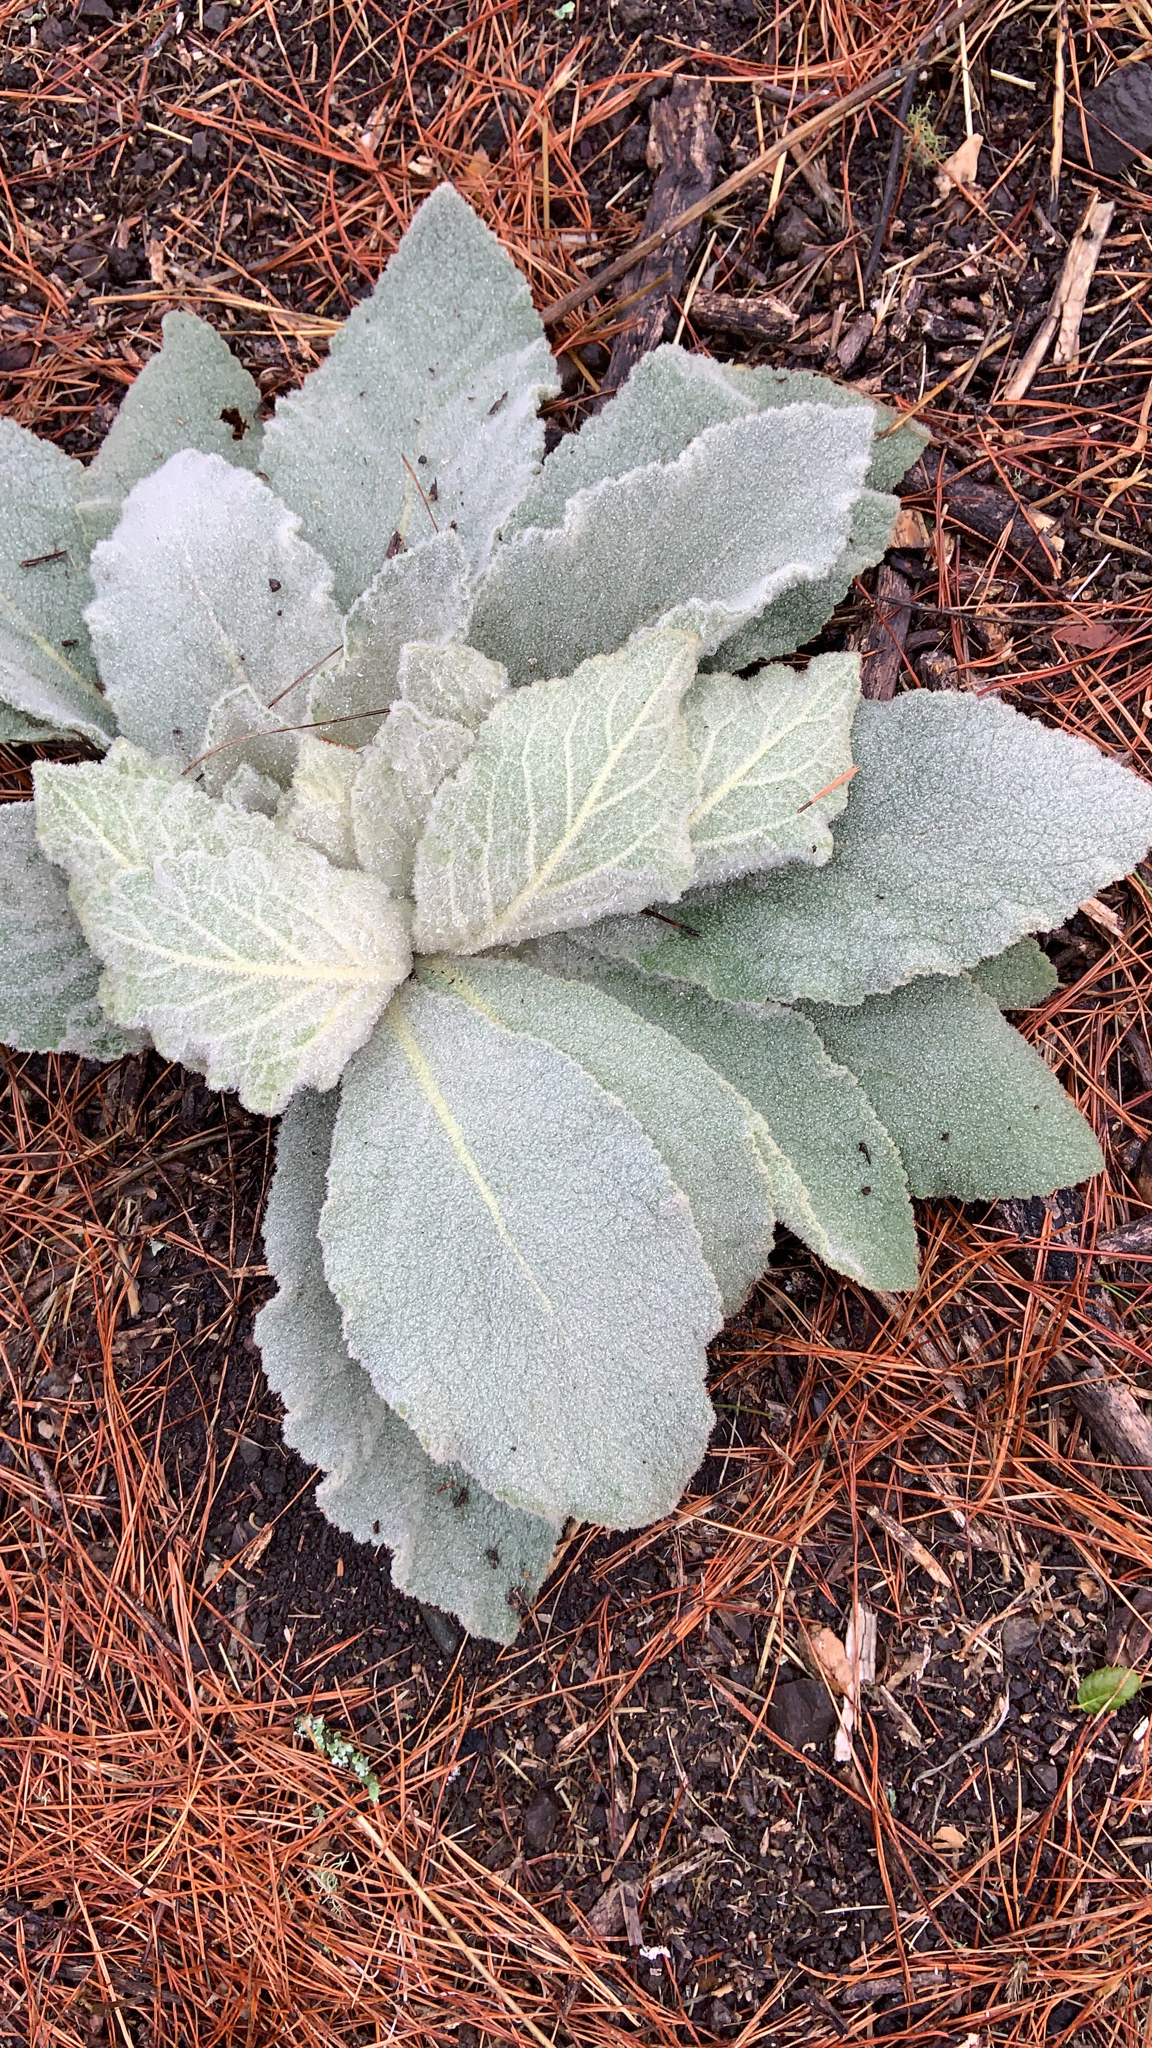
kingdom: Plantae
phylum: Tracheophyta
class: Magnoliopsida
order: Lamiales
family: Scrophulariaceae
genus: Verbascum
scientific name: Verbascum thapsus
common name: Common mullein
